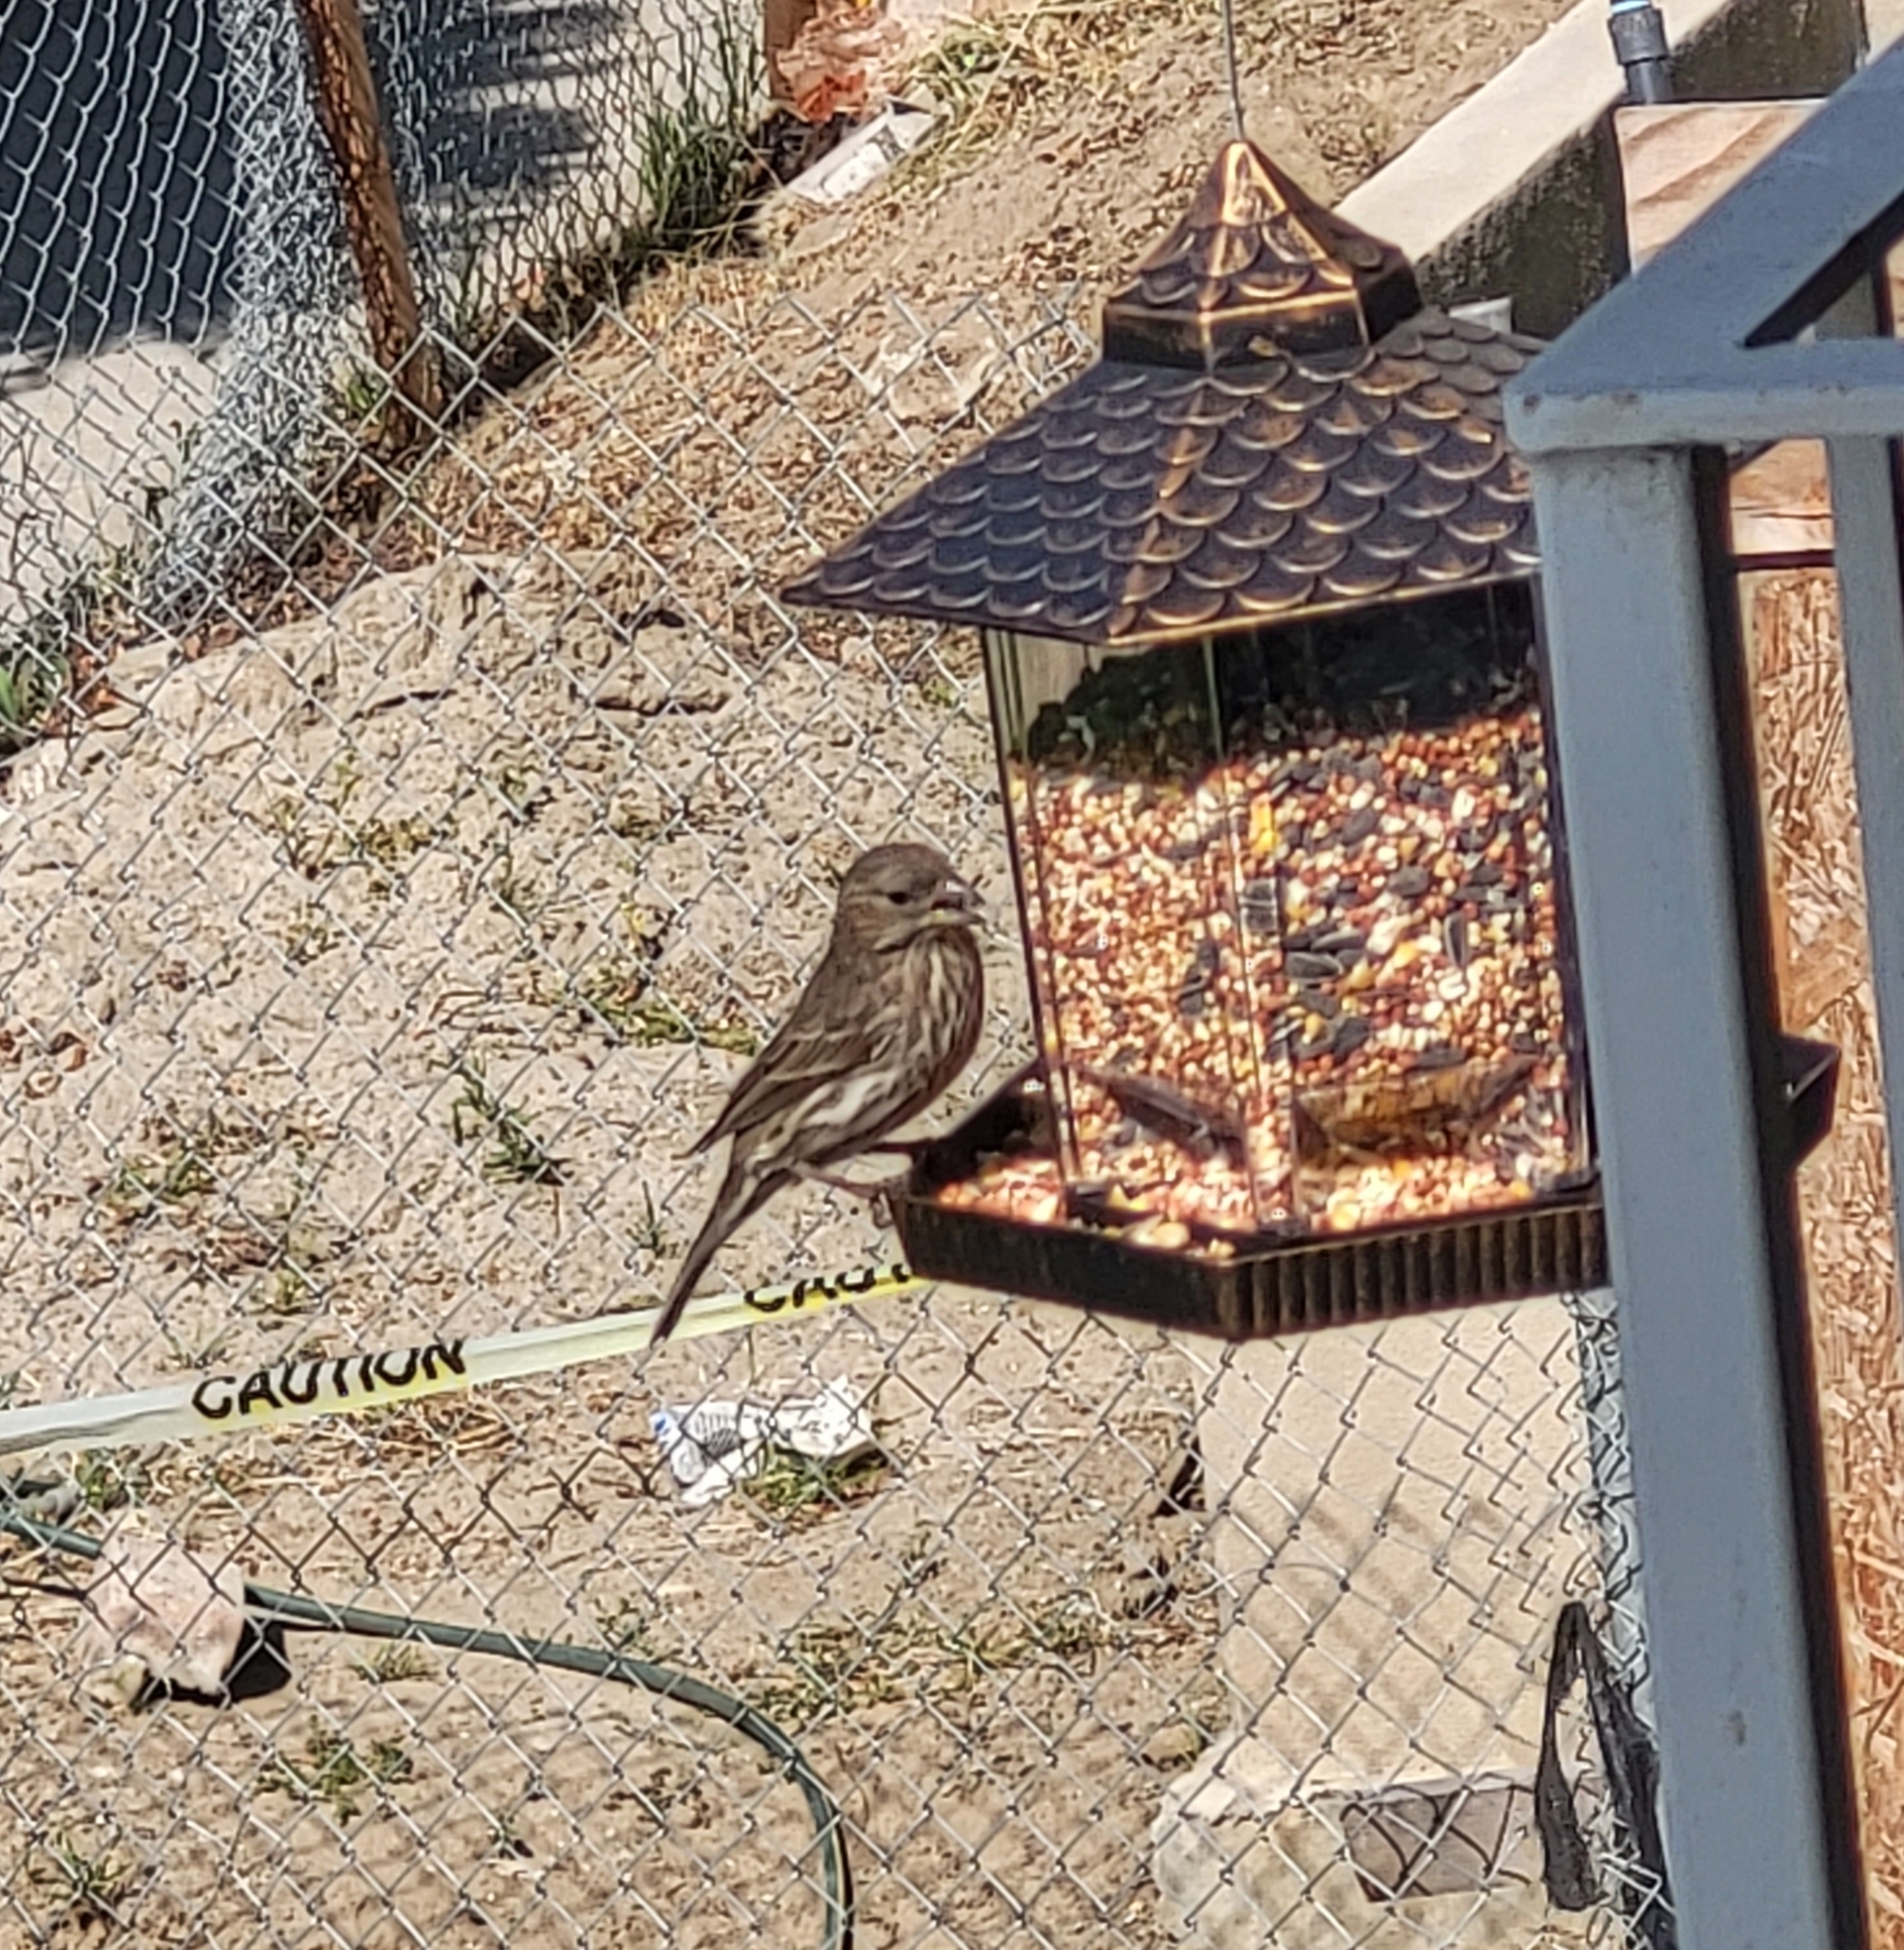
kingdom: Animalia
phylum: Chordata
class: Aves
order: Passeriformes
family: Fringillidae
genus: Haemorhous
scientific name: Haemorhous mexicanus
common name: House finch
